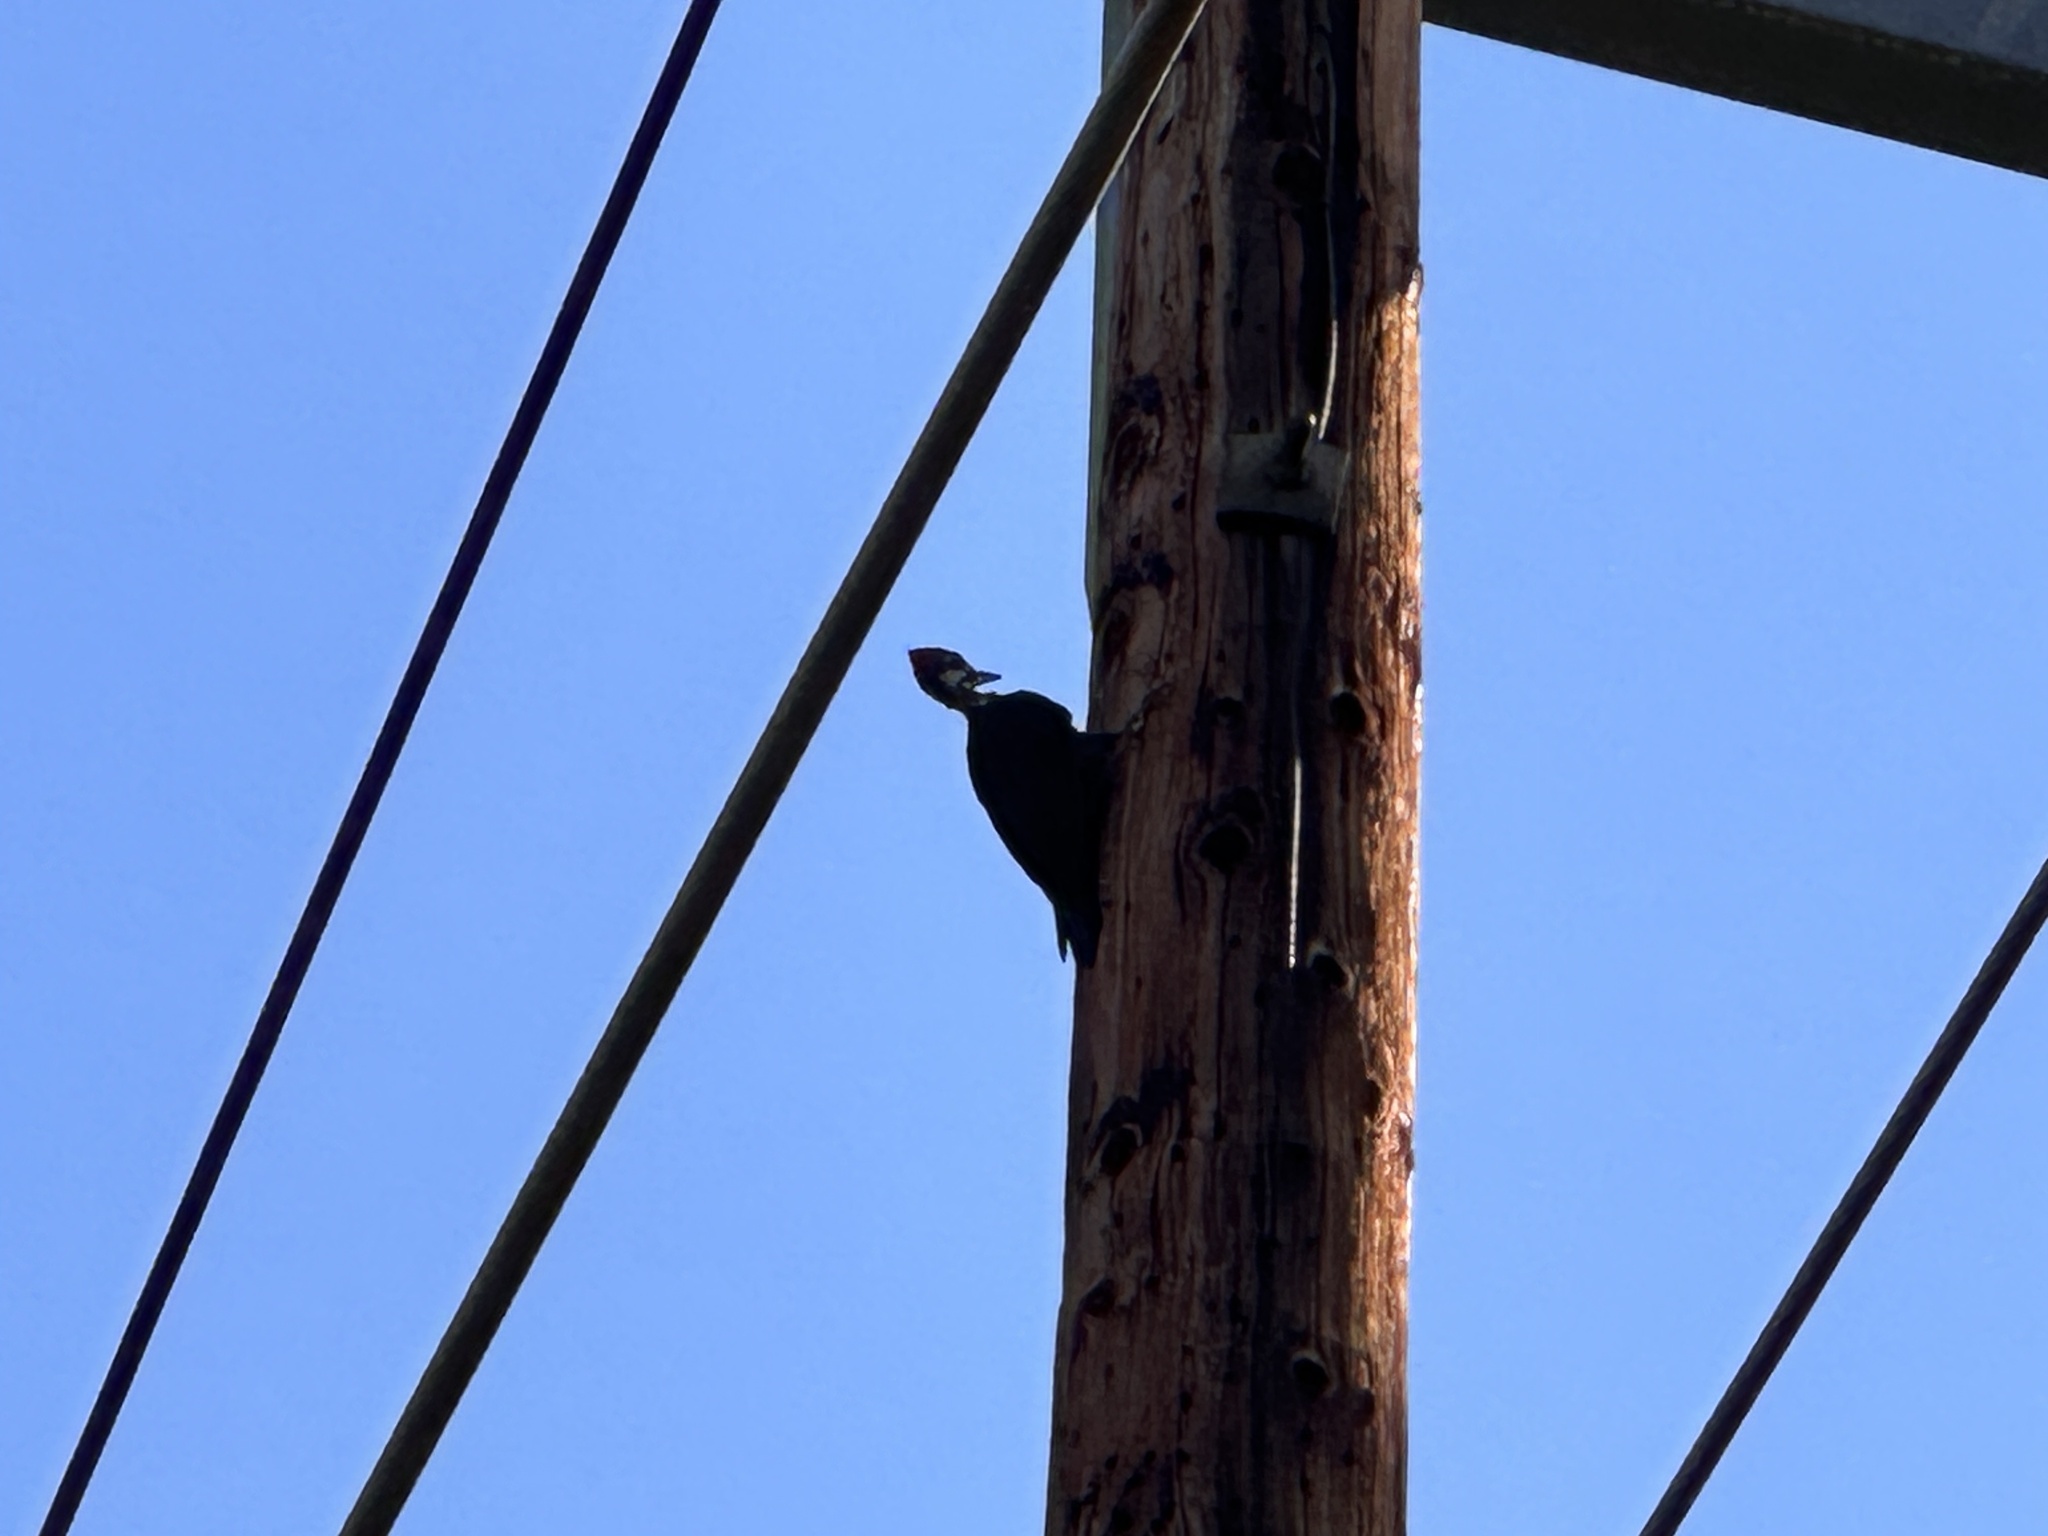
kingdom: Animalia
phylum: Chordata
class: Aves
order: Piciformes
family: Picidae
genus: Dryocopus
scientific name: Dryocopus pileatus
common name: Pileated woodpecker
